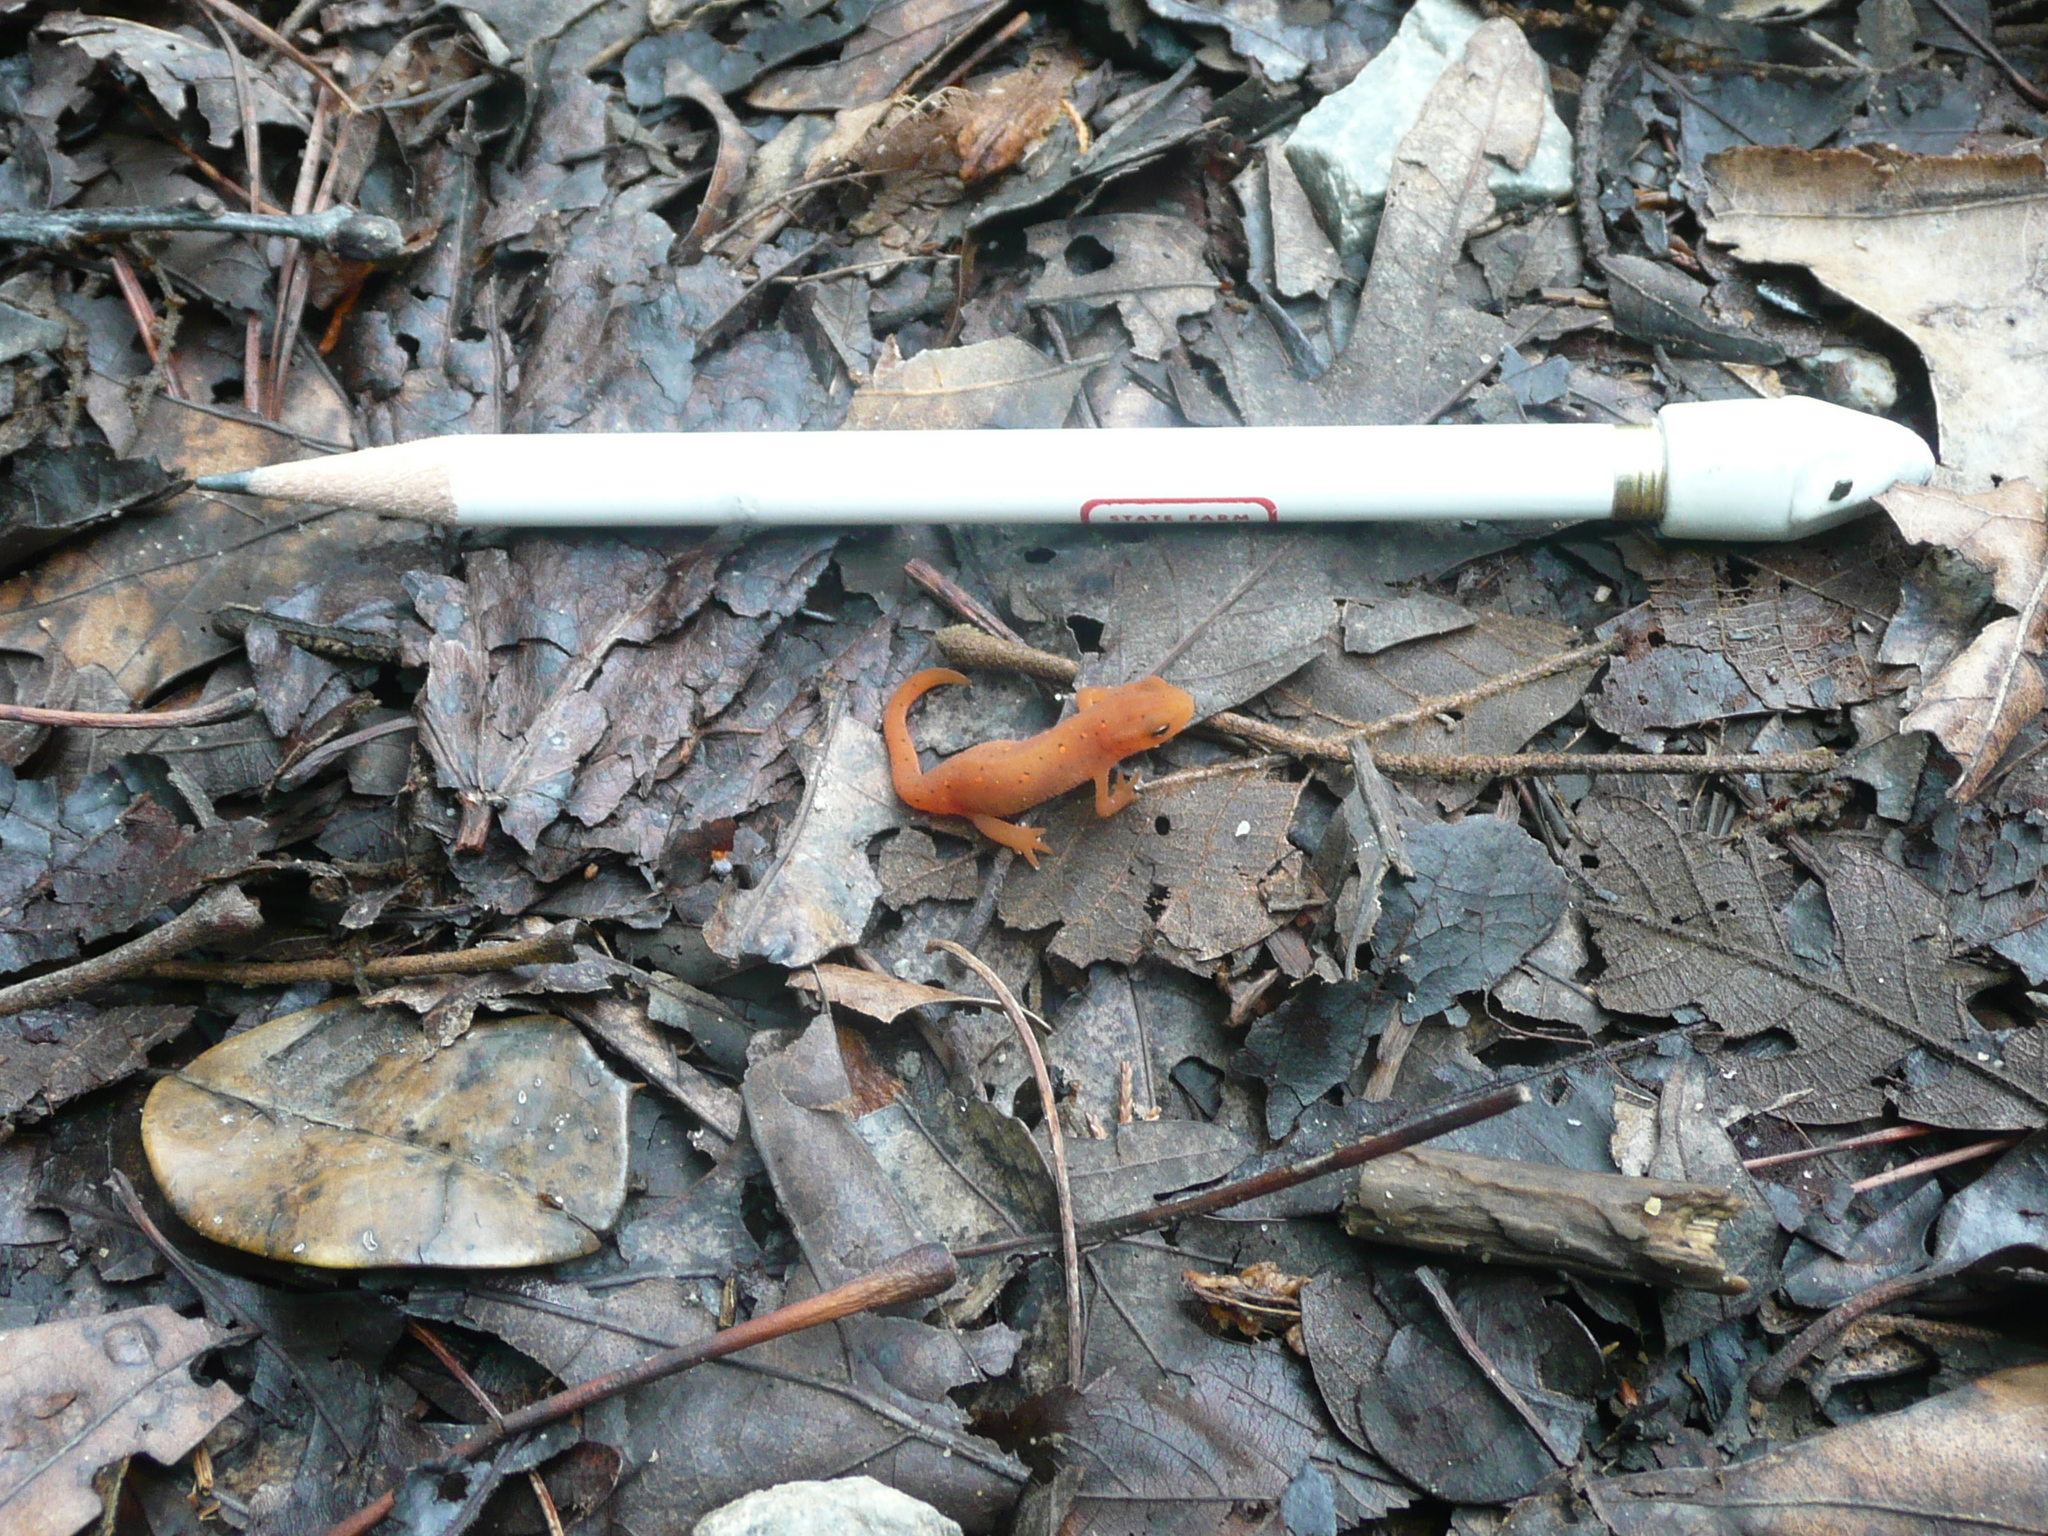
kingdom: Animalia
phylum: Chordata
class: Amphibia
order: Caudata
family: Salamandridae
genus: Notophthalmus
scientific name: Notophthalmus viridescens
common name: Eastern newt
